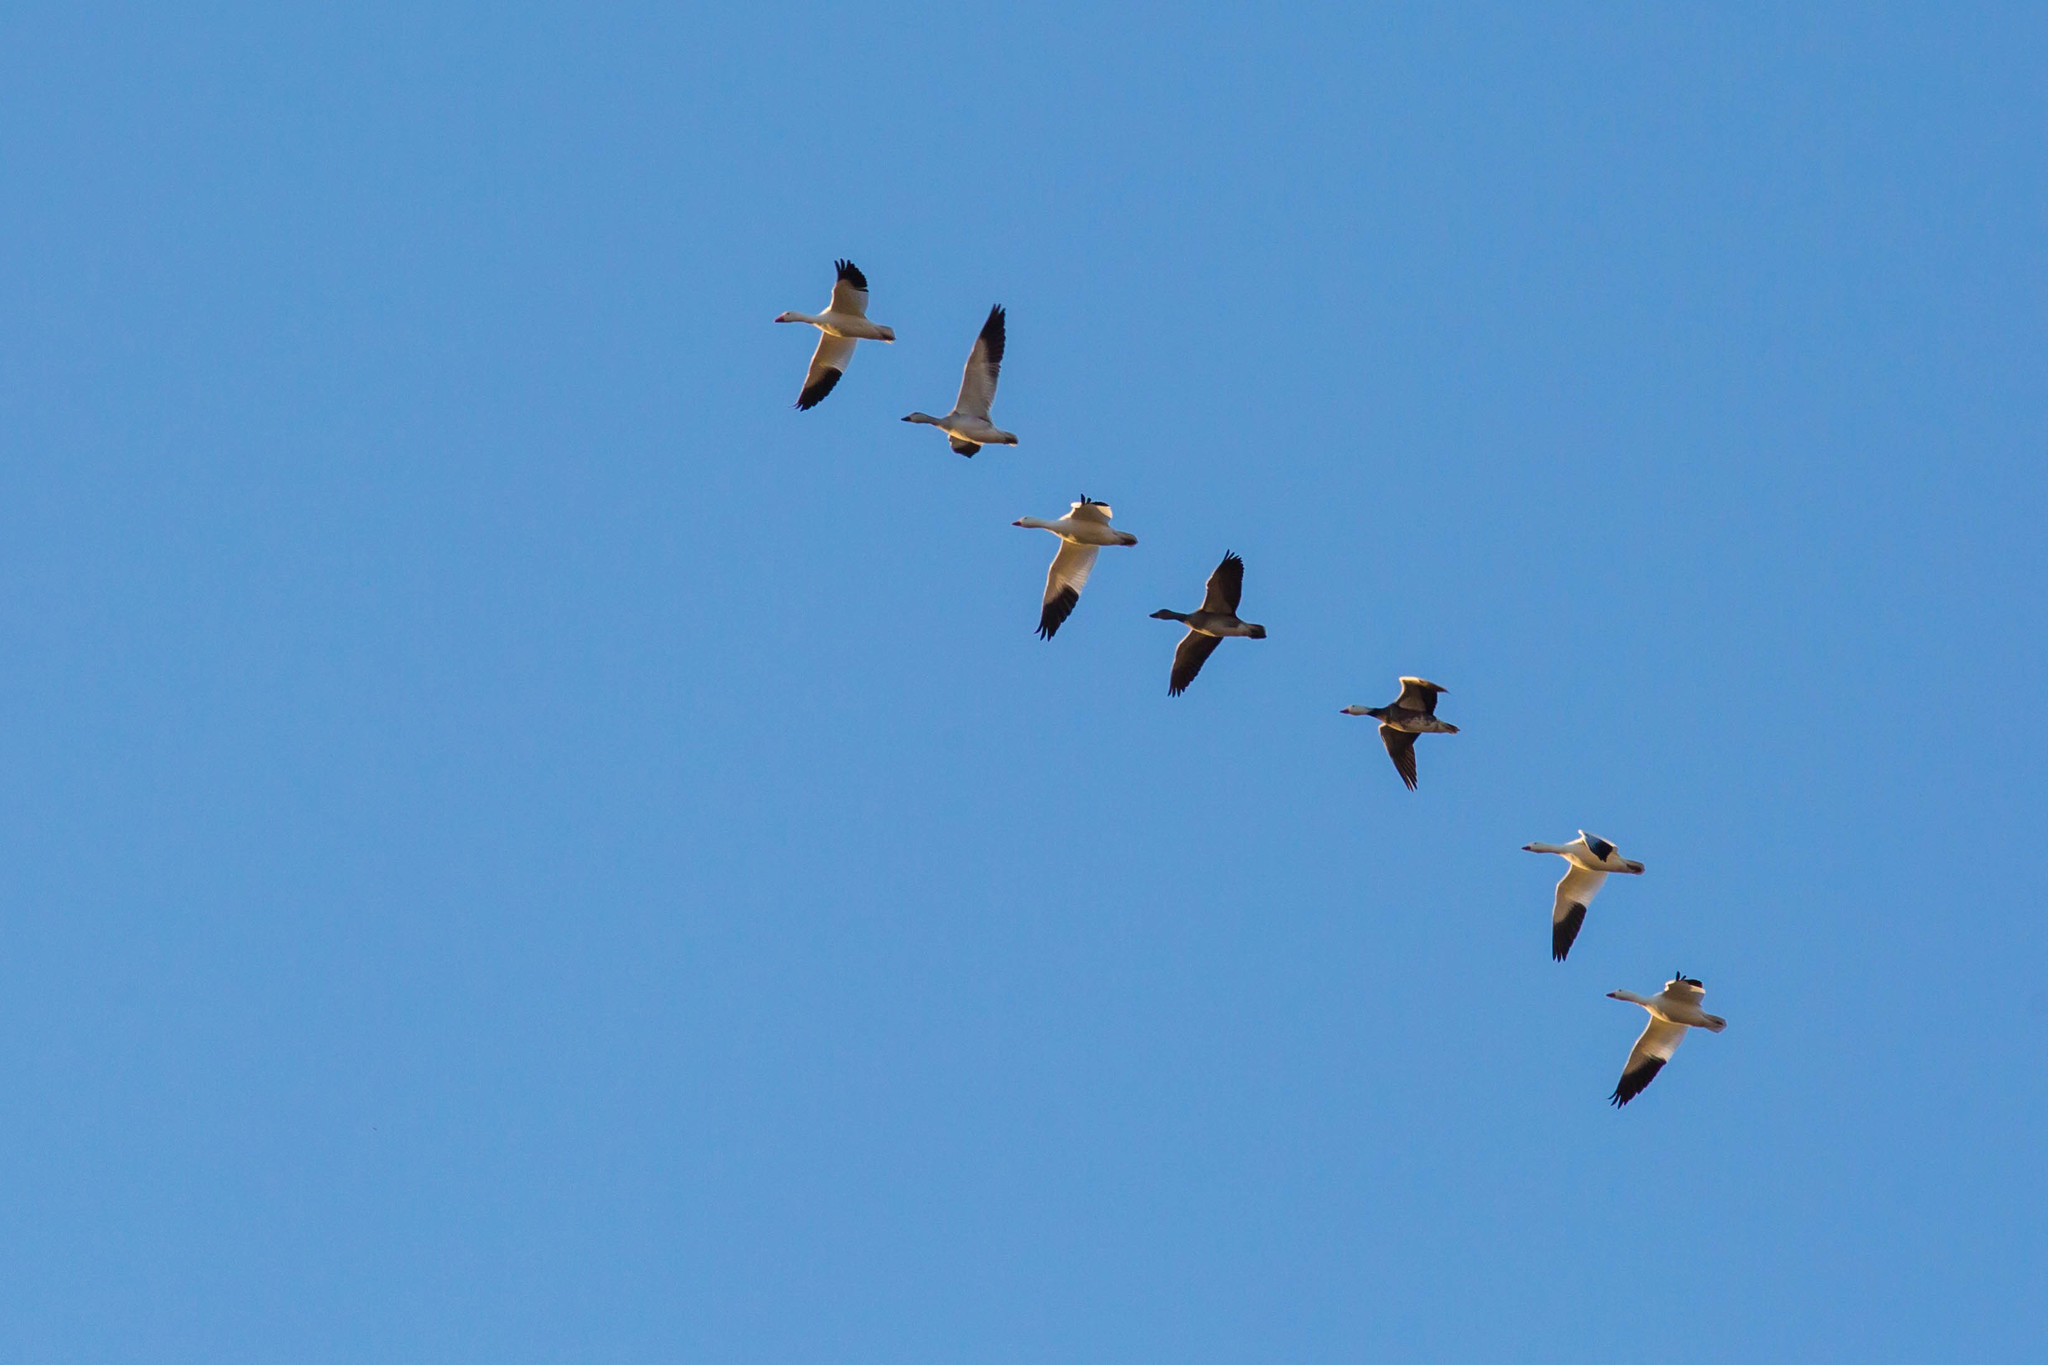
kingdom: Animalia
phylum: Chordata
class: Aves
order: Anseriformes
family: Anatidae
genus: Anser
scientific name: Anser caerulescens
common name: Snow goose
